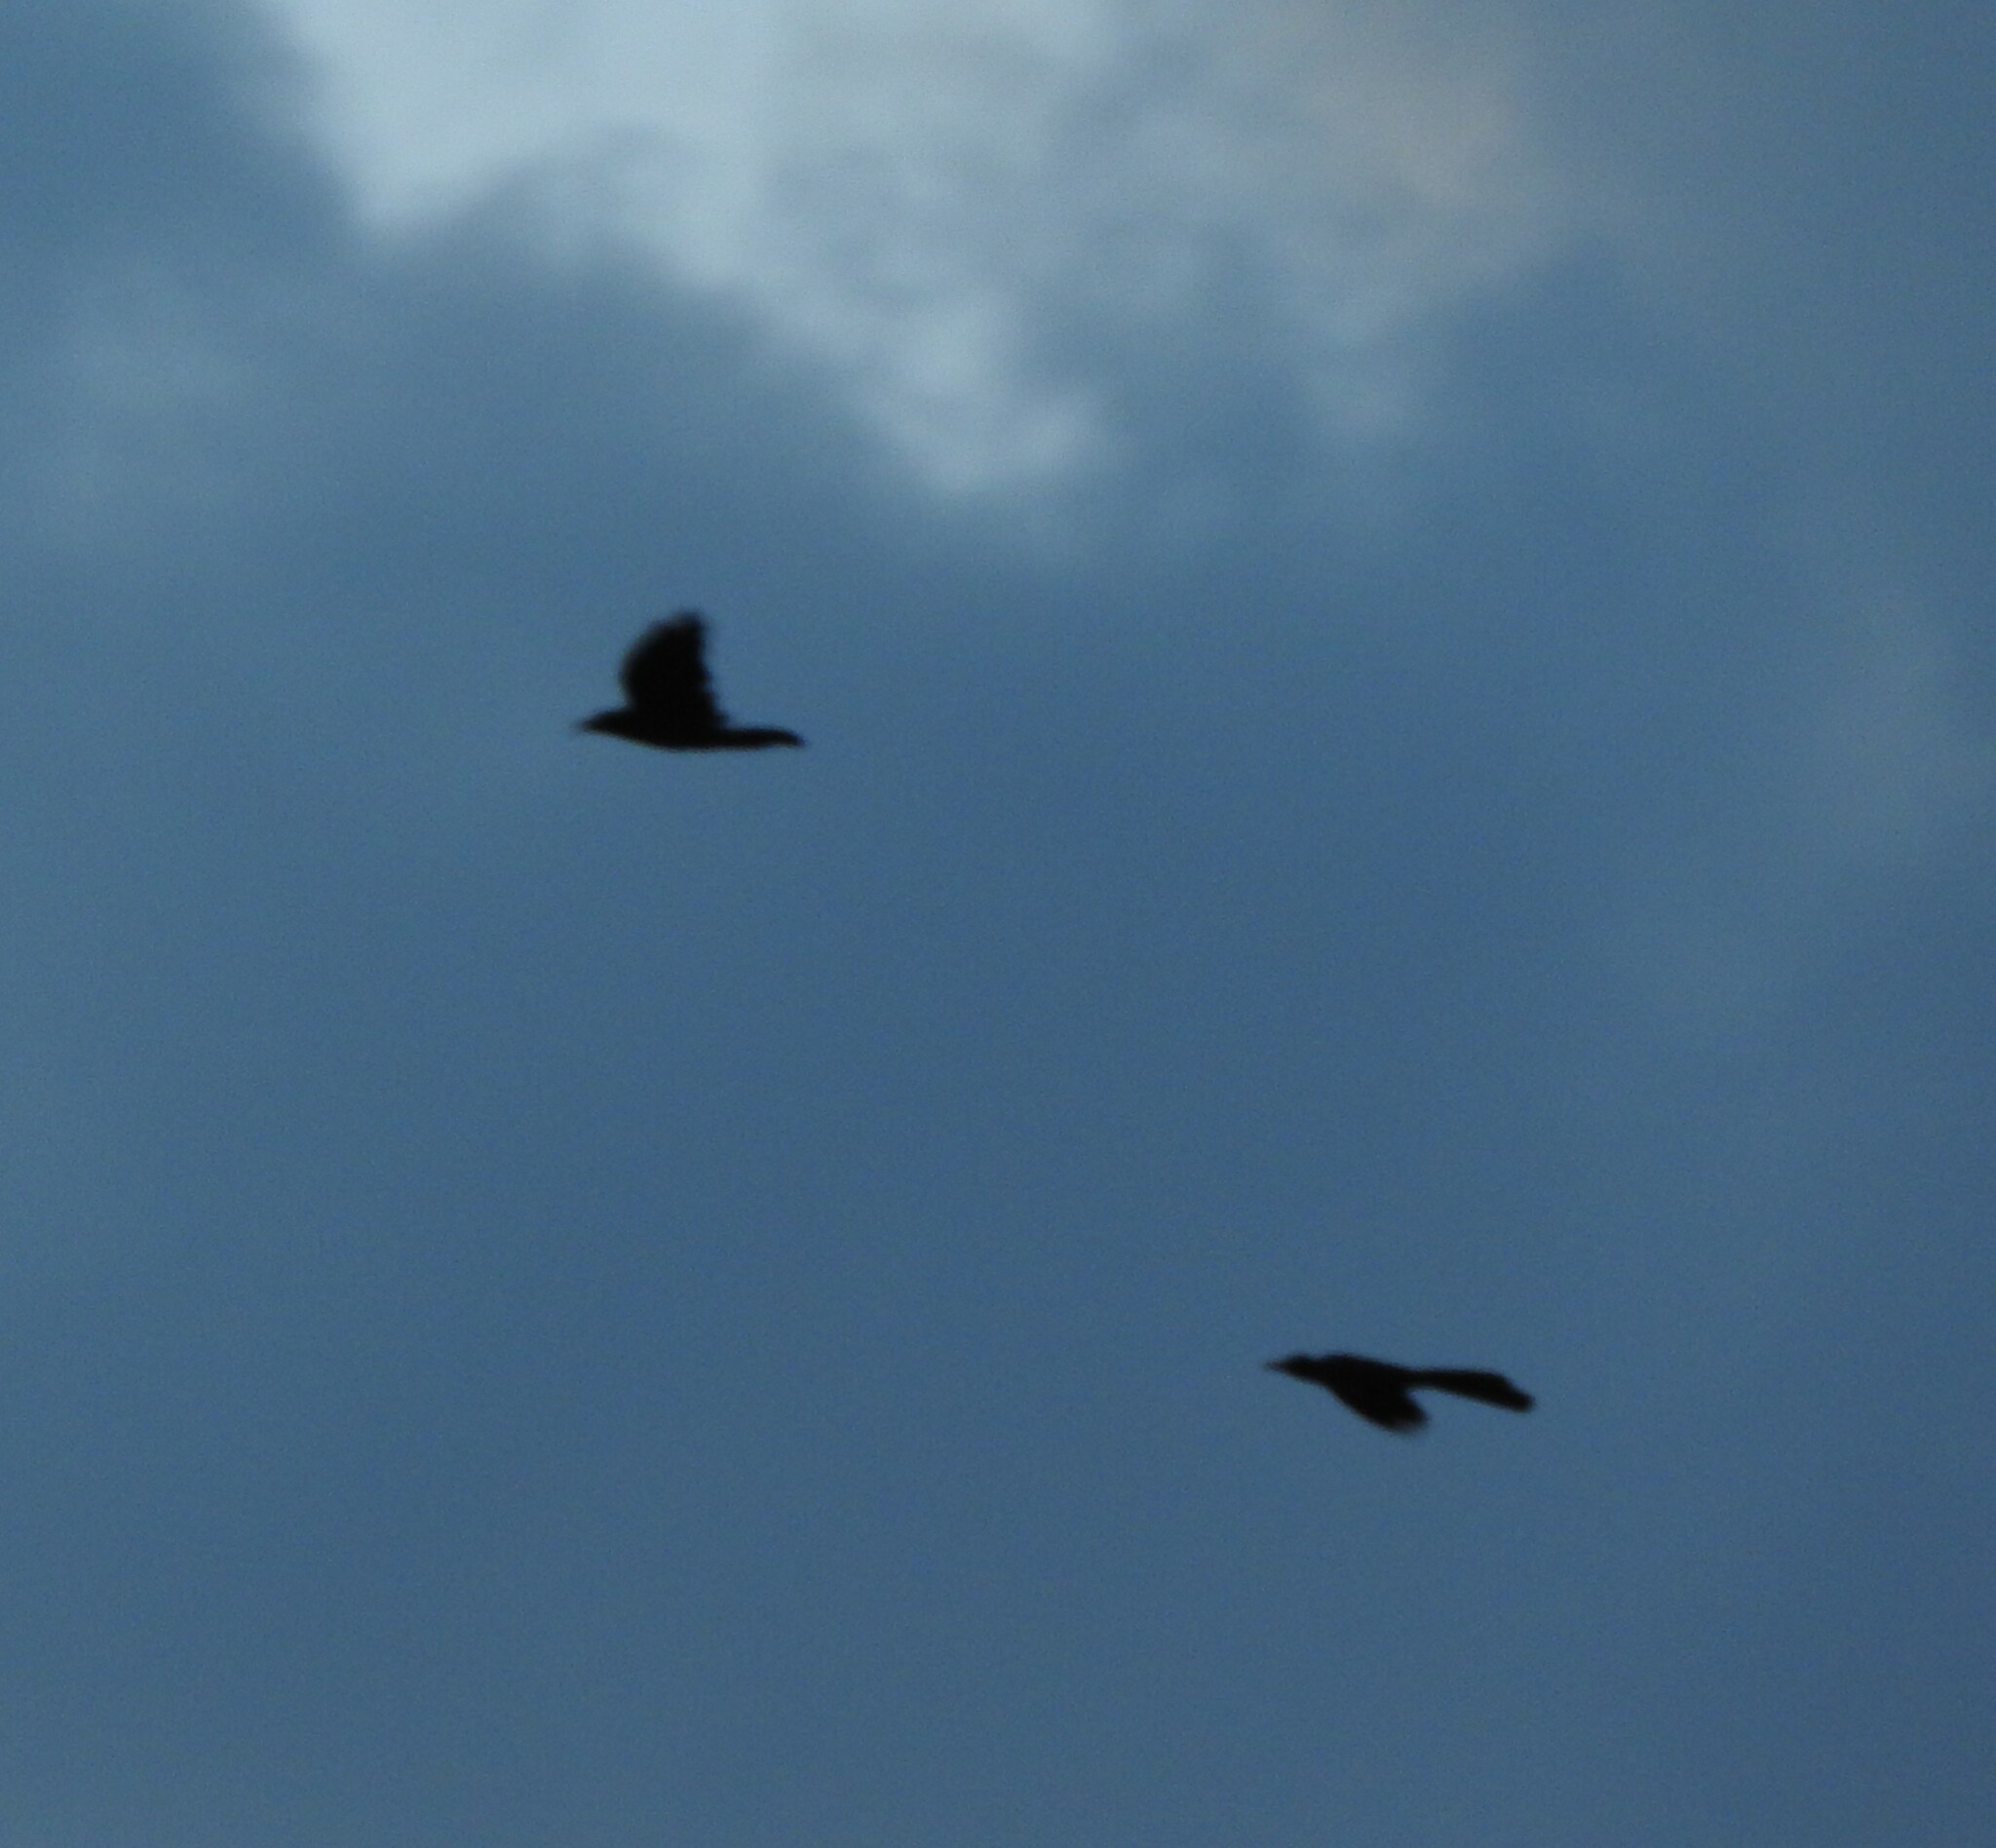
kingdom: Animalia
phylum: Chordata
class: Aves
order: Passeriformes
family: Icteridae
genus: Quiscalus
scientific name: Quiscalus mexicanus
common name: Great-tailed grackle
